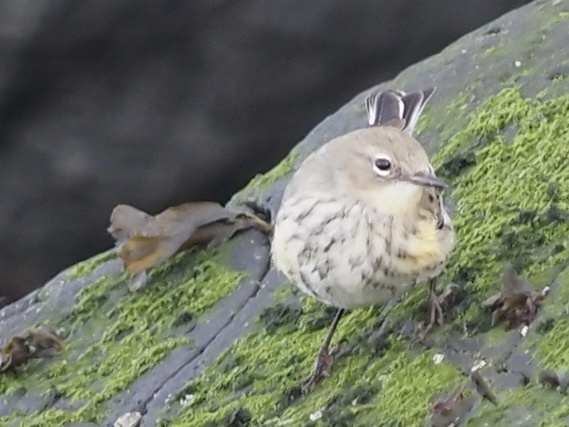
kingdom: Animalia
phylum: Chordata
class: Aves
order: Passeriformes
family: Parulidae
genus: Setophaga
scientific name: Setophaga coronata
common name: Myrtle warbler
